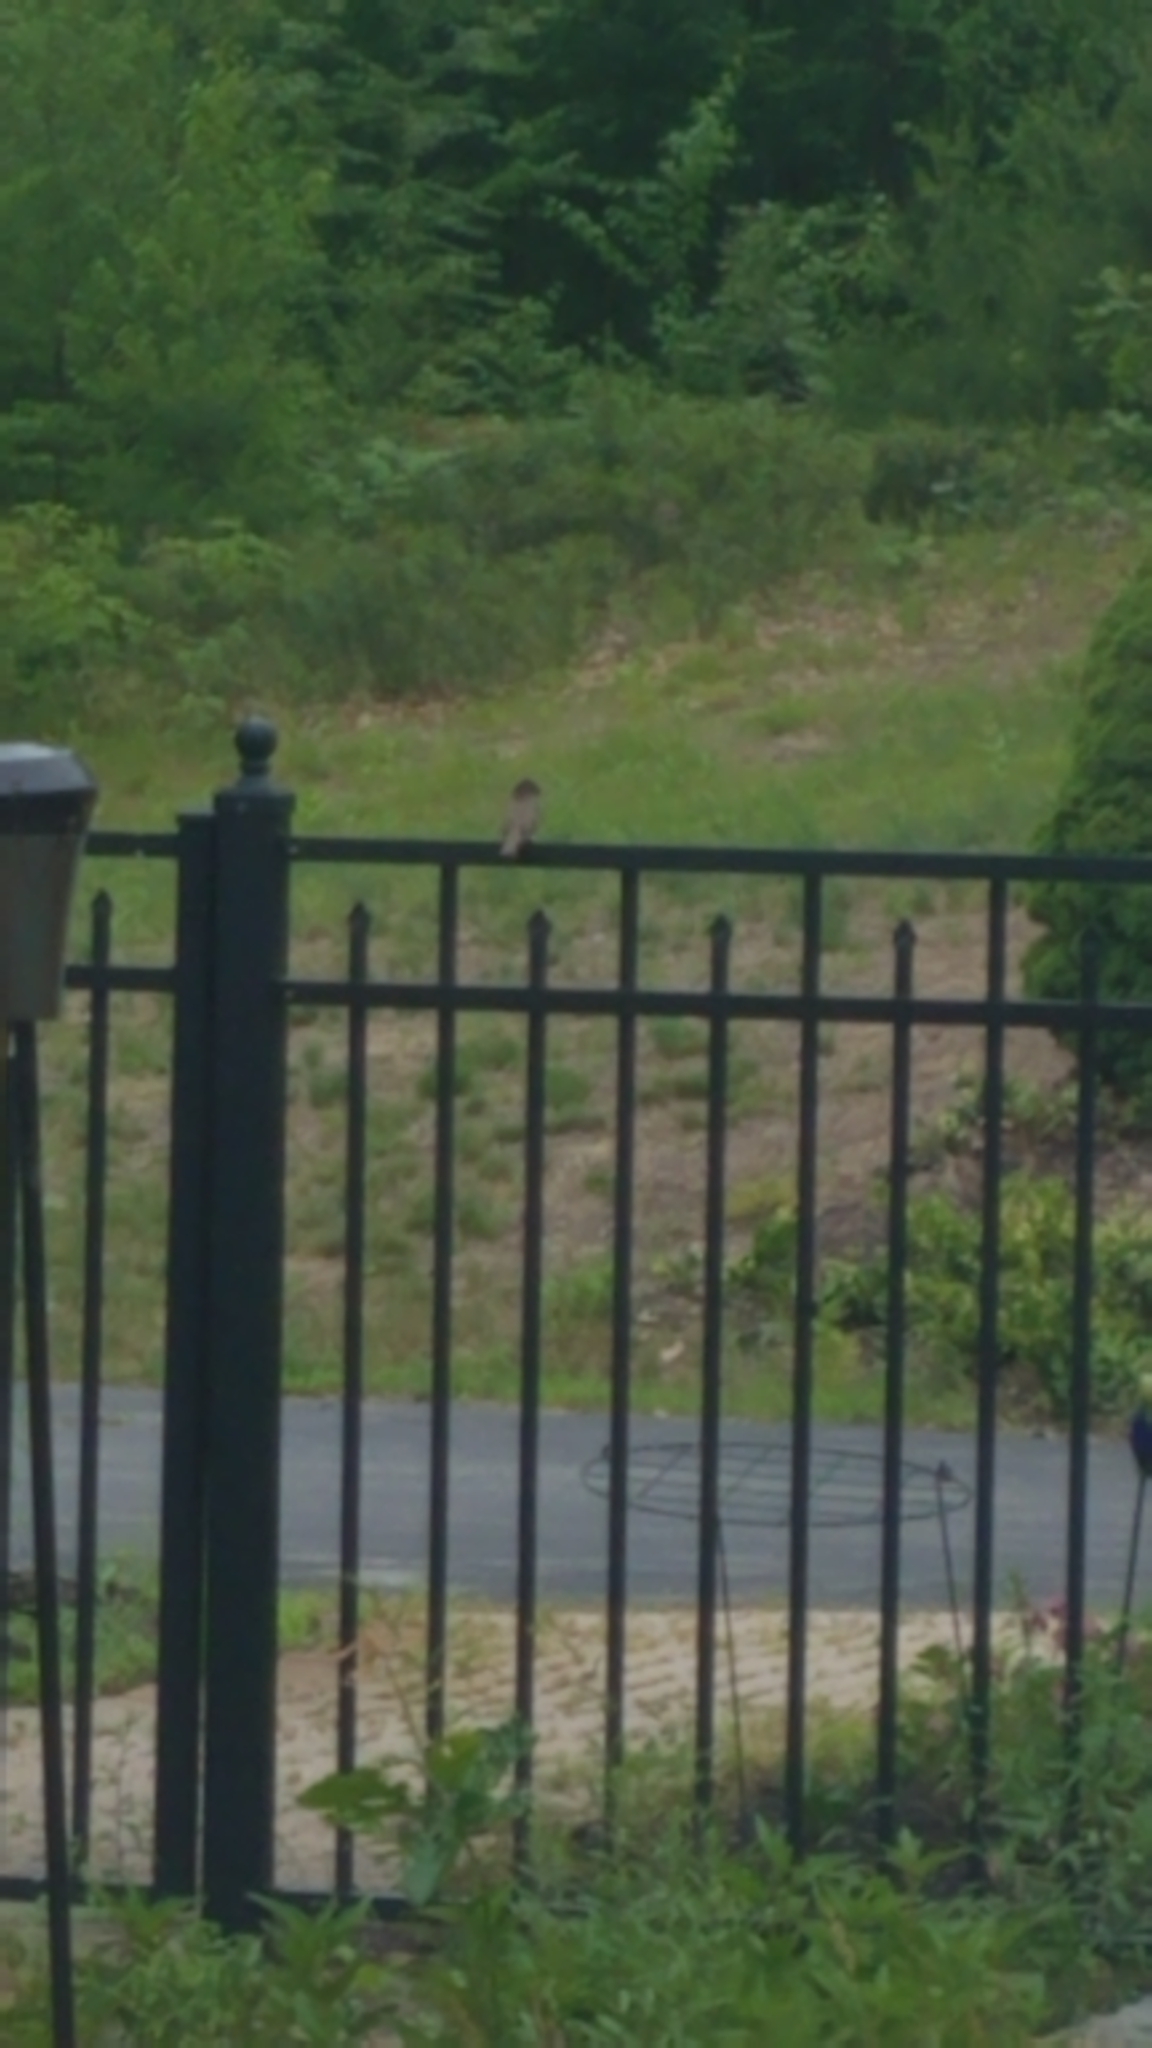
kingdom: Animalia
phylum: Chordata
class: Aves
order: Passeriformes
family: Tyrannidae
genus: Sayornis
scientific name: Sayornis phoebe
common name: Eastern phoebe
